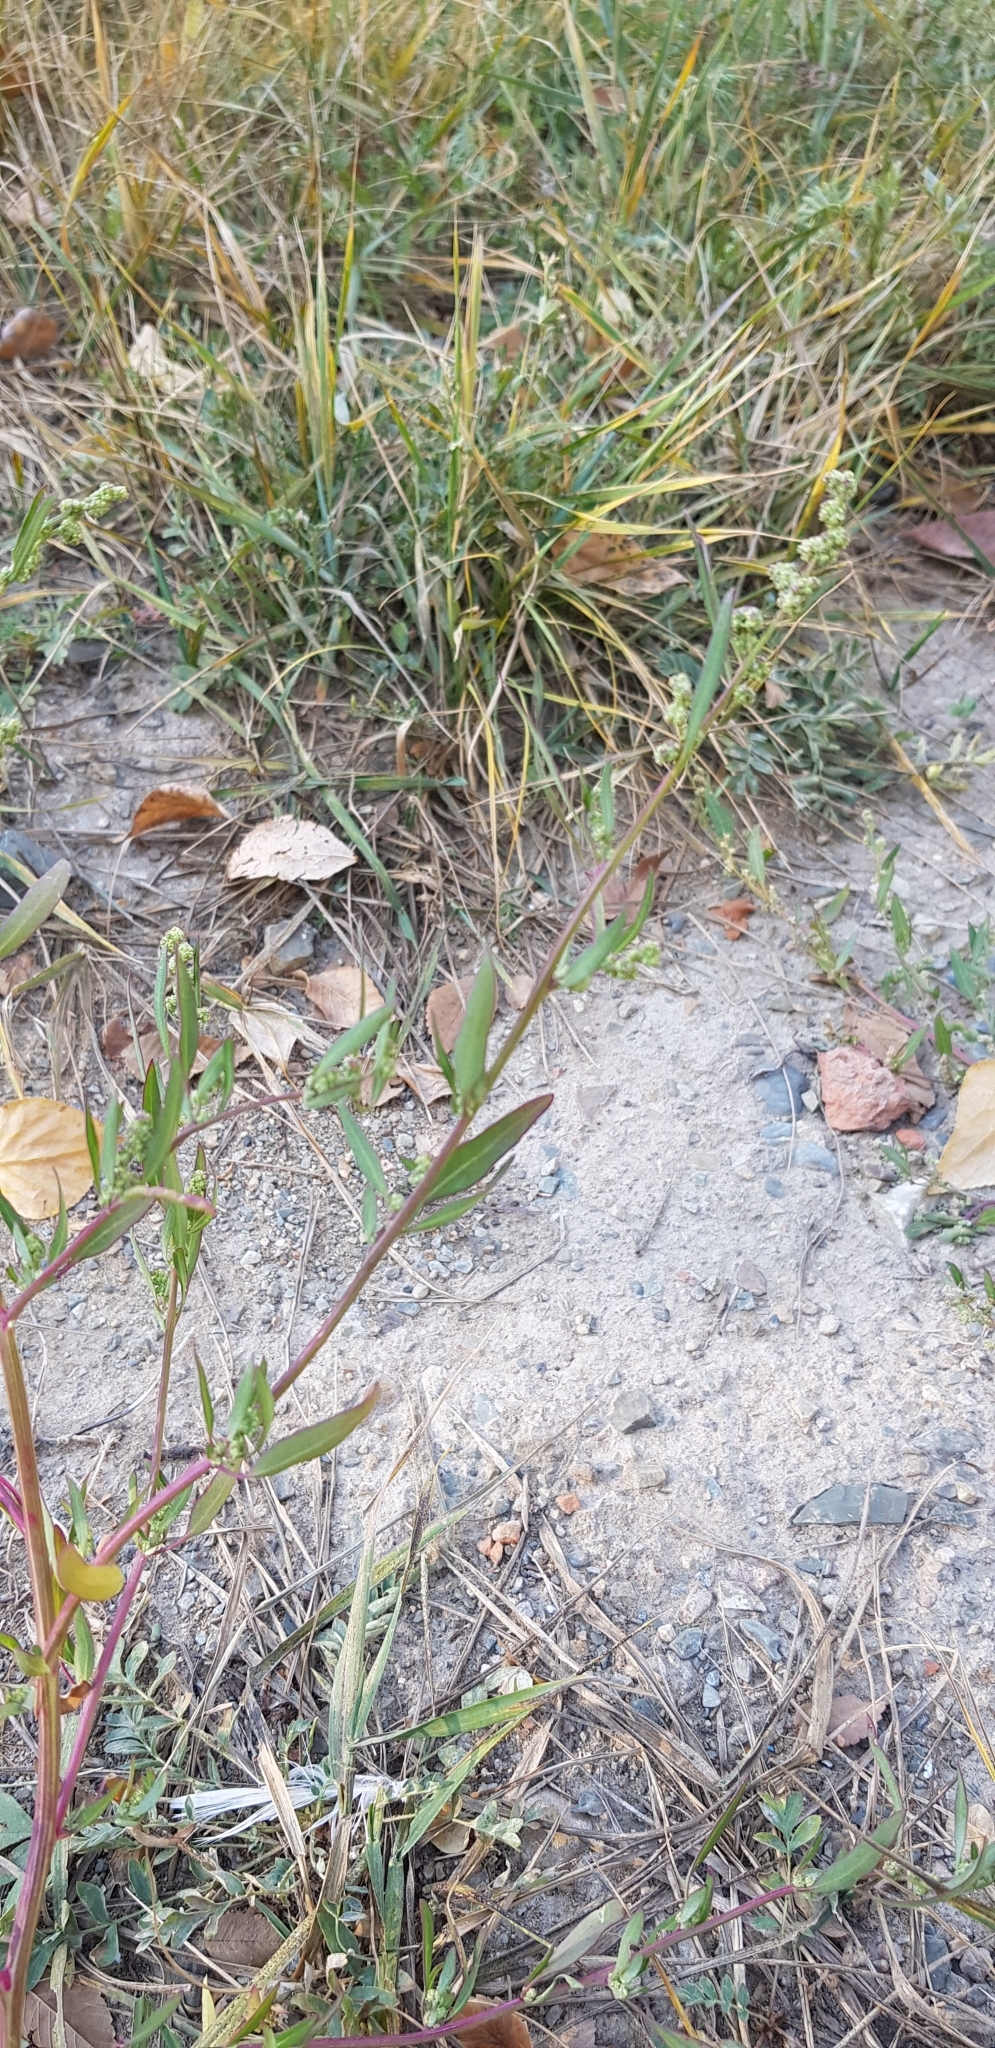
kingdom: Plantae
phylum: Tracheophyta
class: Magnoliopsida
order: Caryophyllales
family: Amaranthaceae
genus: Chenopodium
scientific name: Chenopodium betaceum
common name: Striped goosefoot
